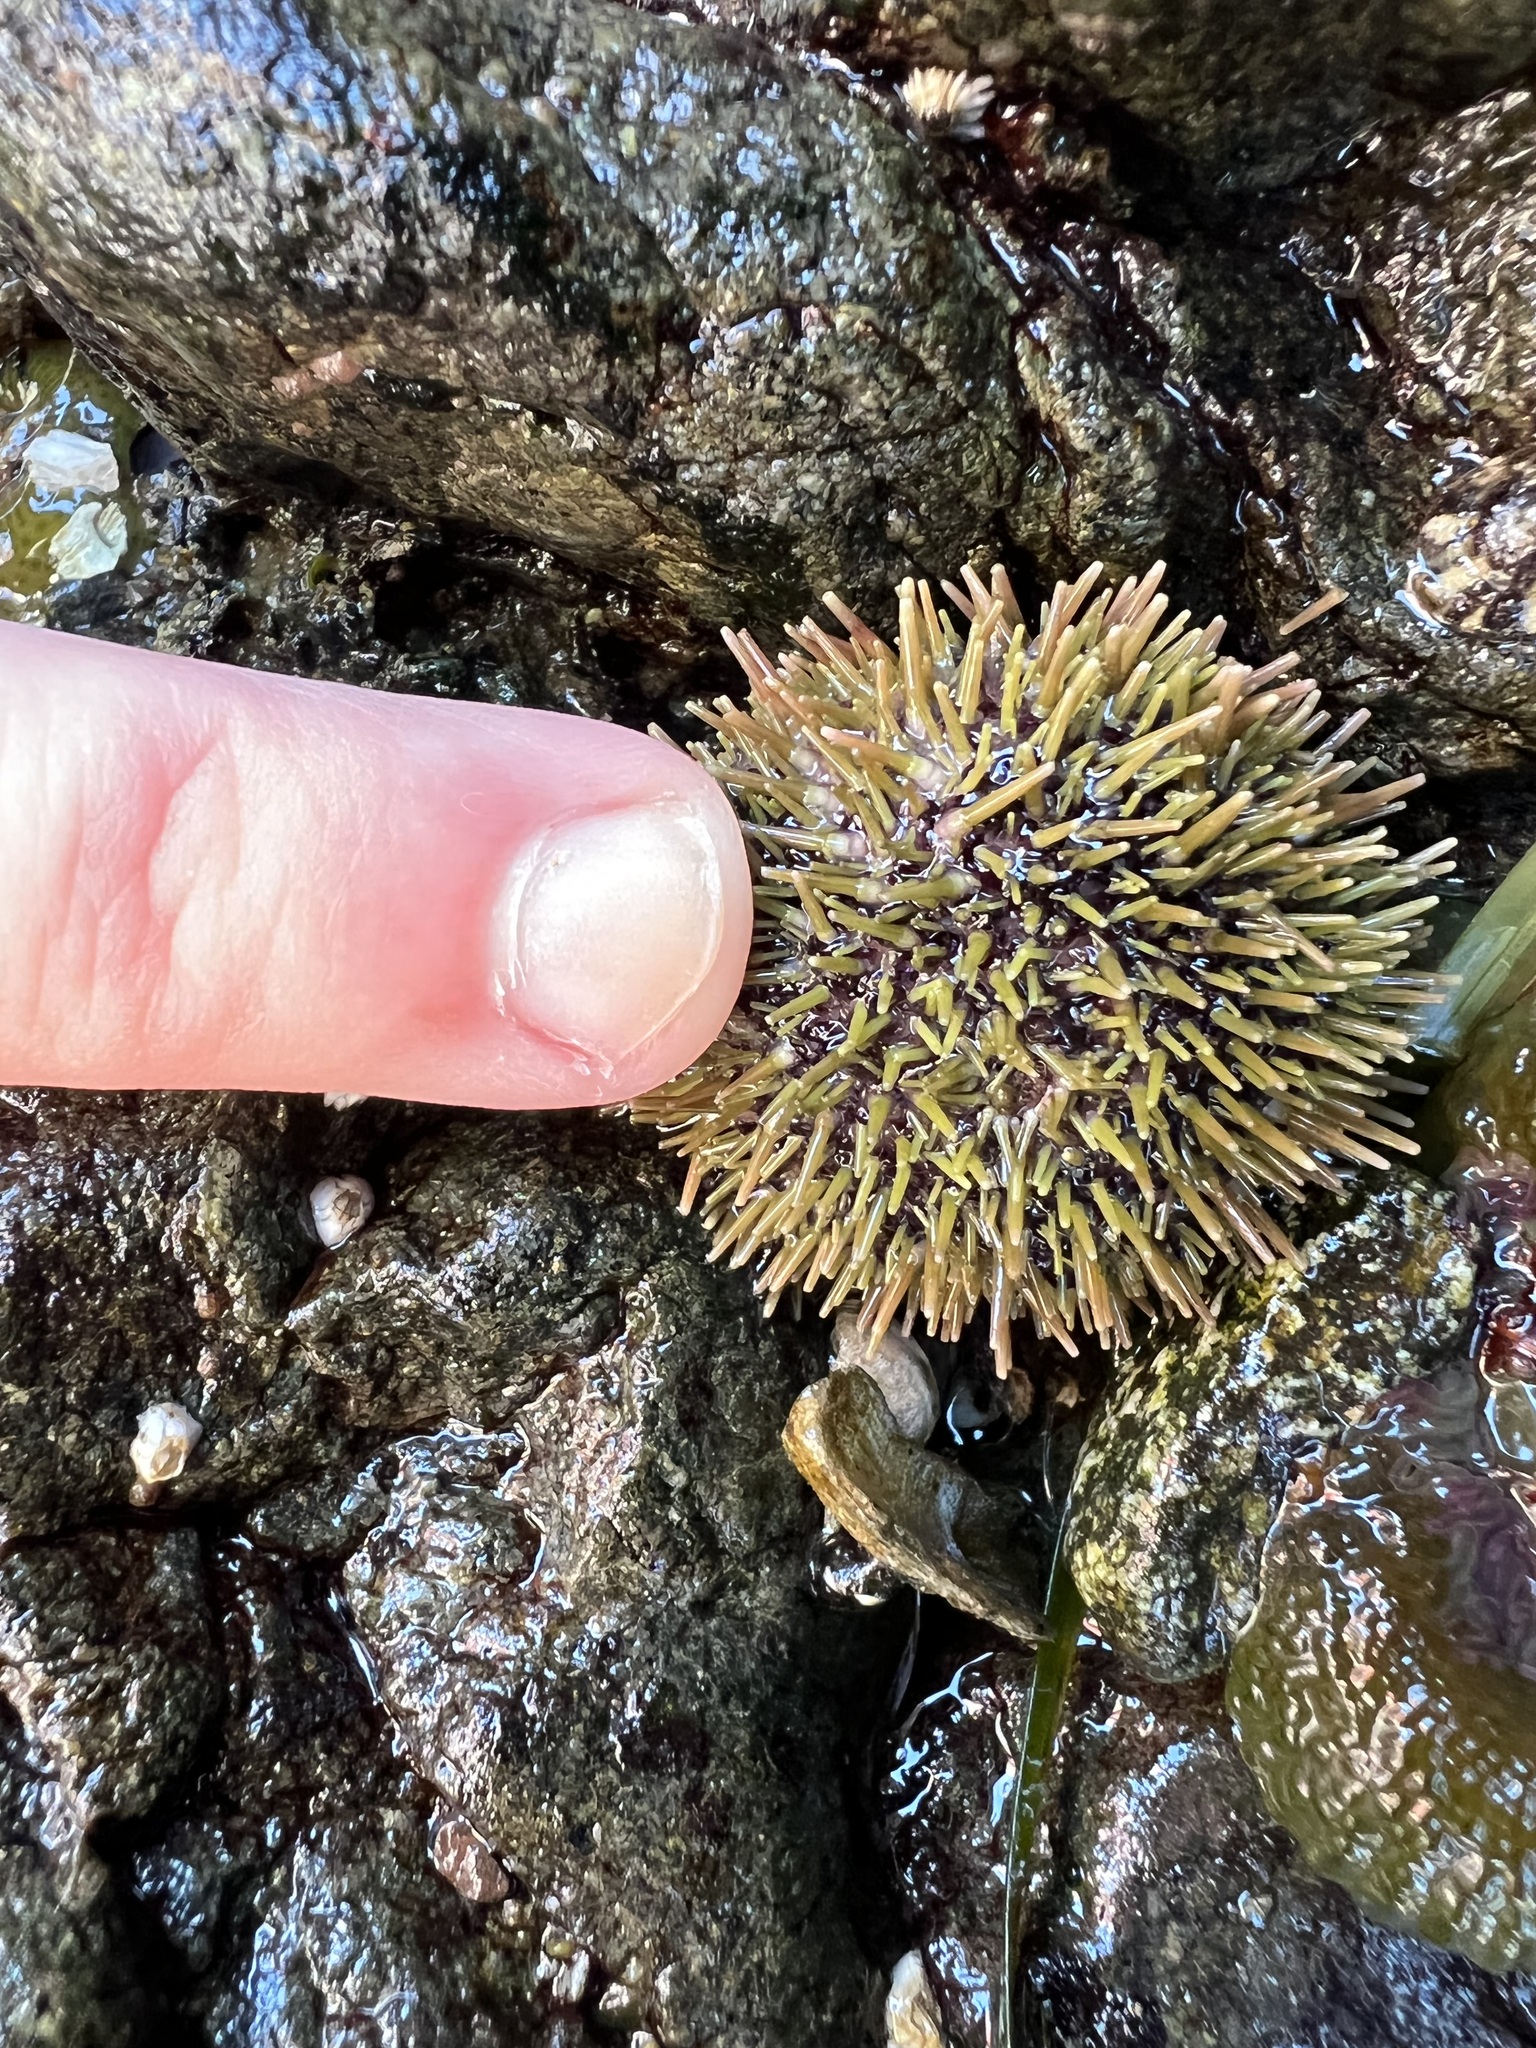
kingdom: Animalia
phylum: Echinodermata
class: Echinoidea
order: Camarodonta
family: Strongylocentrotidae
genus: Strongylocentrotus
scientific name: Strongylocentrotus droebachiensis
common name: Northern sea urchin
